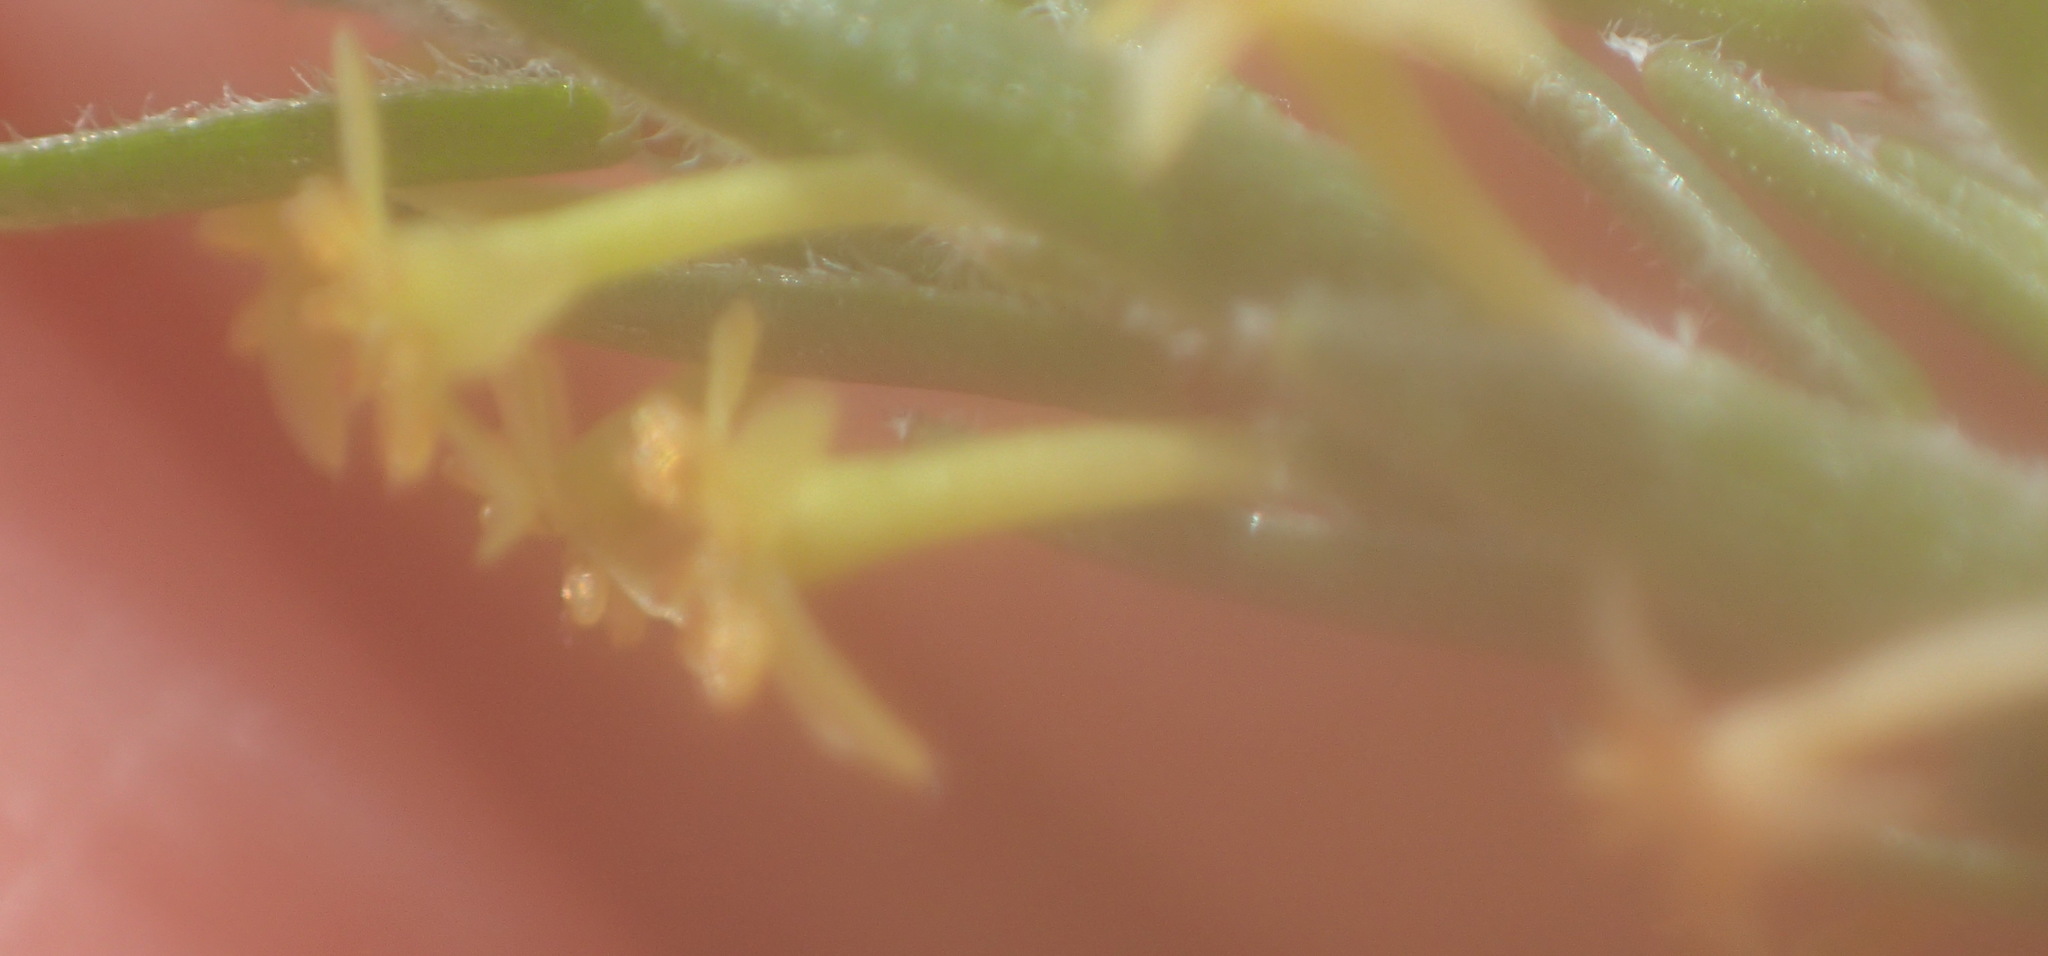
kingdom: Plantae
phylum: Tracheophyta
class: Magnoliopsida
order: Malvales
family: Thymelaeaceae
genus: Struthiola
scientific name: Struthiola parviflora
